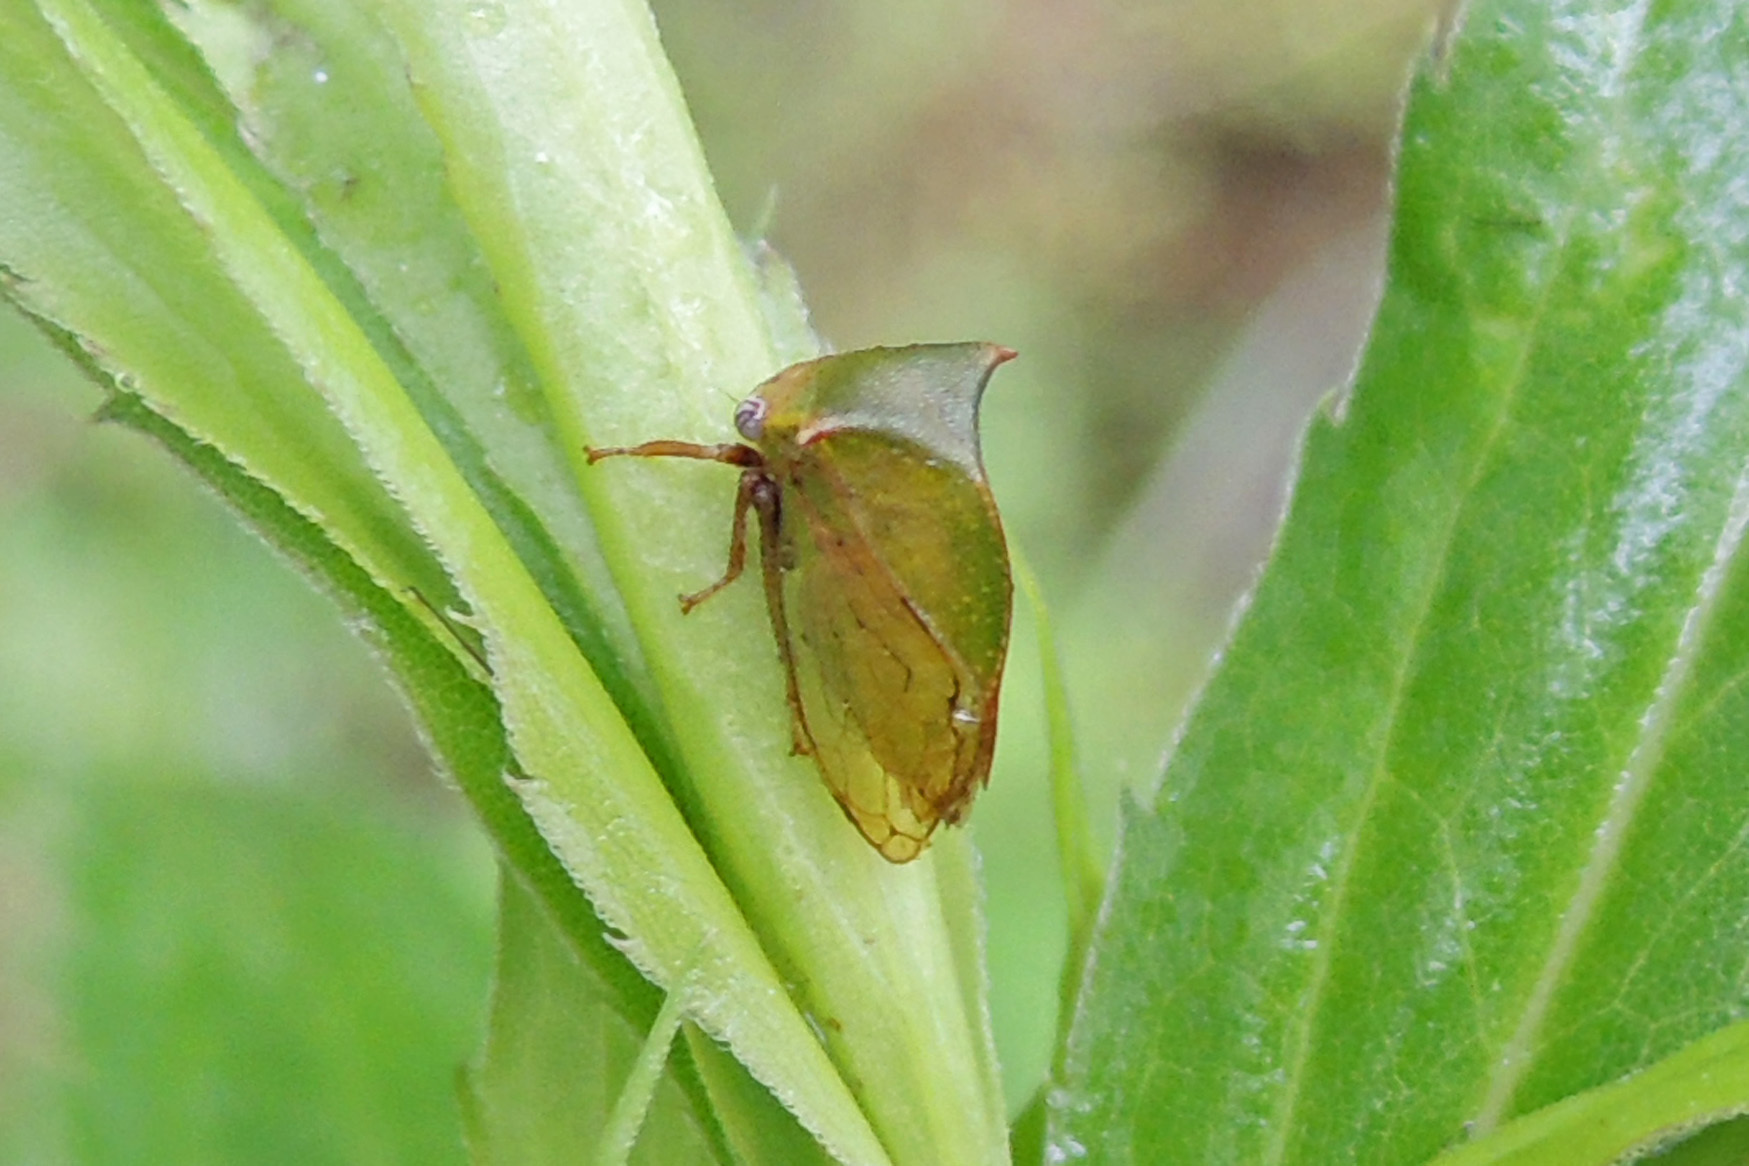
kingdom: Animalia
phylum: Arthropoda
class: Insecta
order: Hemiptera
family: Membracidae
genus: Stictocephala
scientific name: Stictocephala brevitylus
